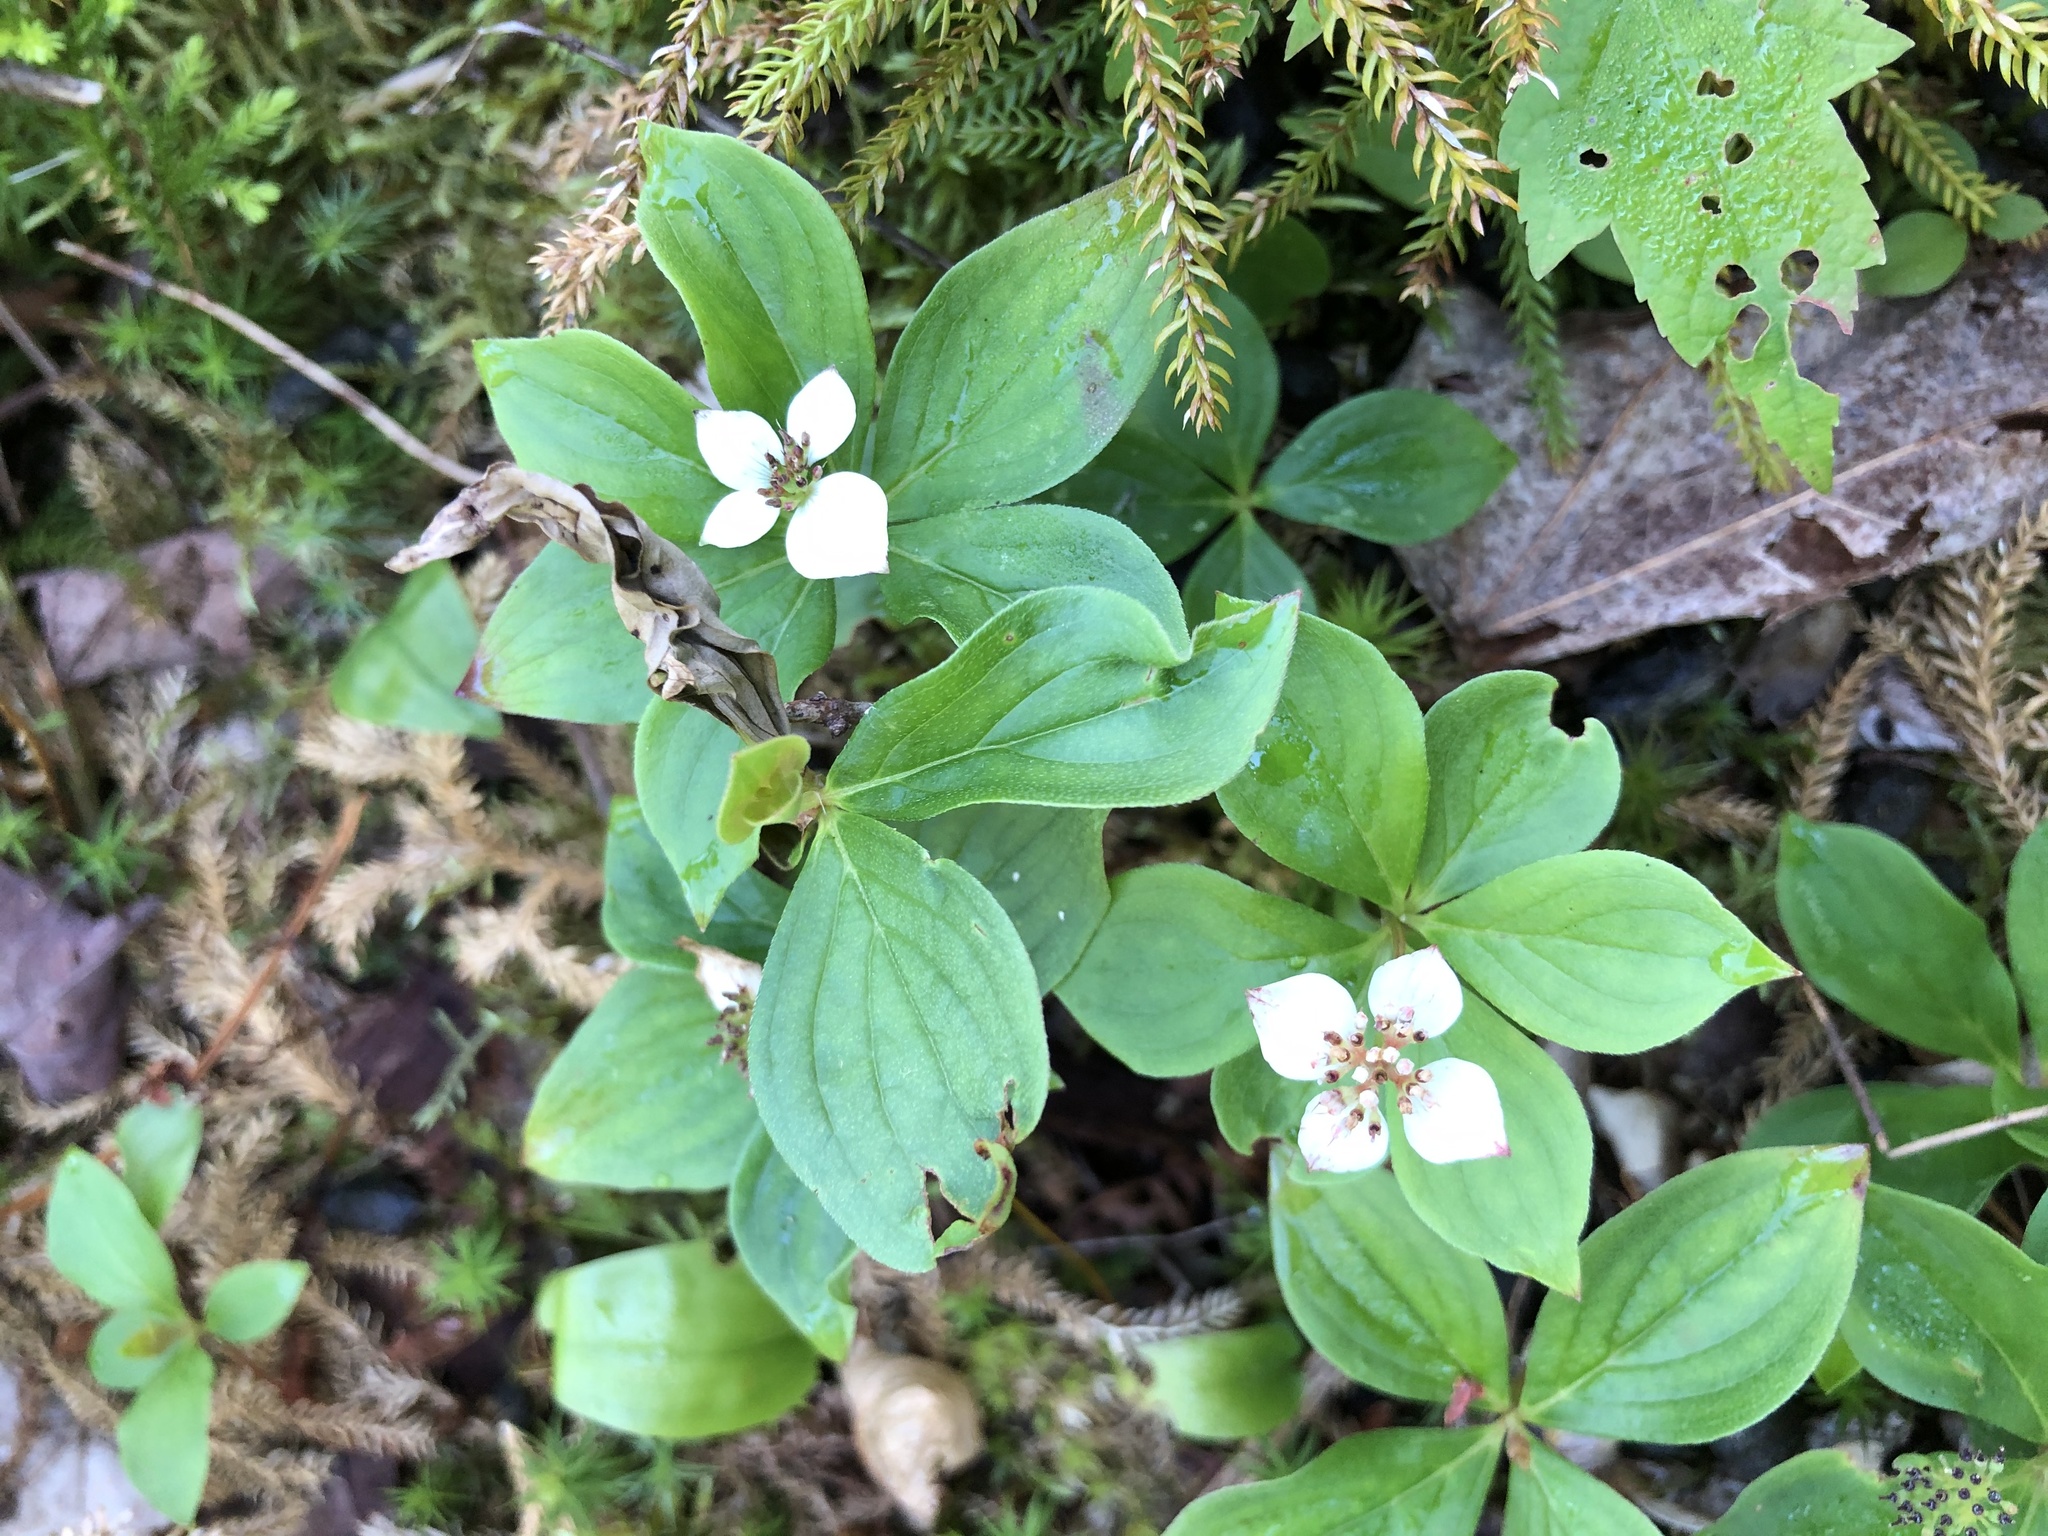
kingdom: Plantae
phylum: Tracheophyta
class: Magnoliopsida
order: Cornales
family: Cornaceae
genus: Cornus
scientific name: Cornus canadensis
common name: Creeping dogwood
